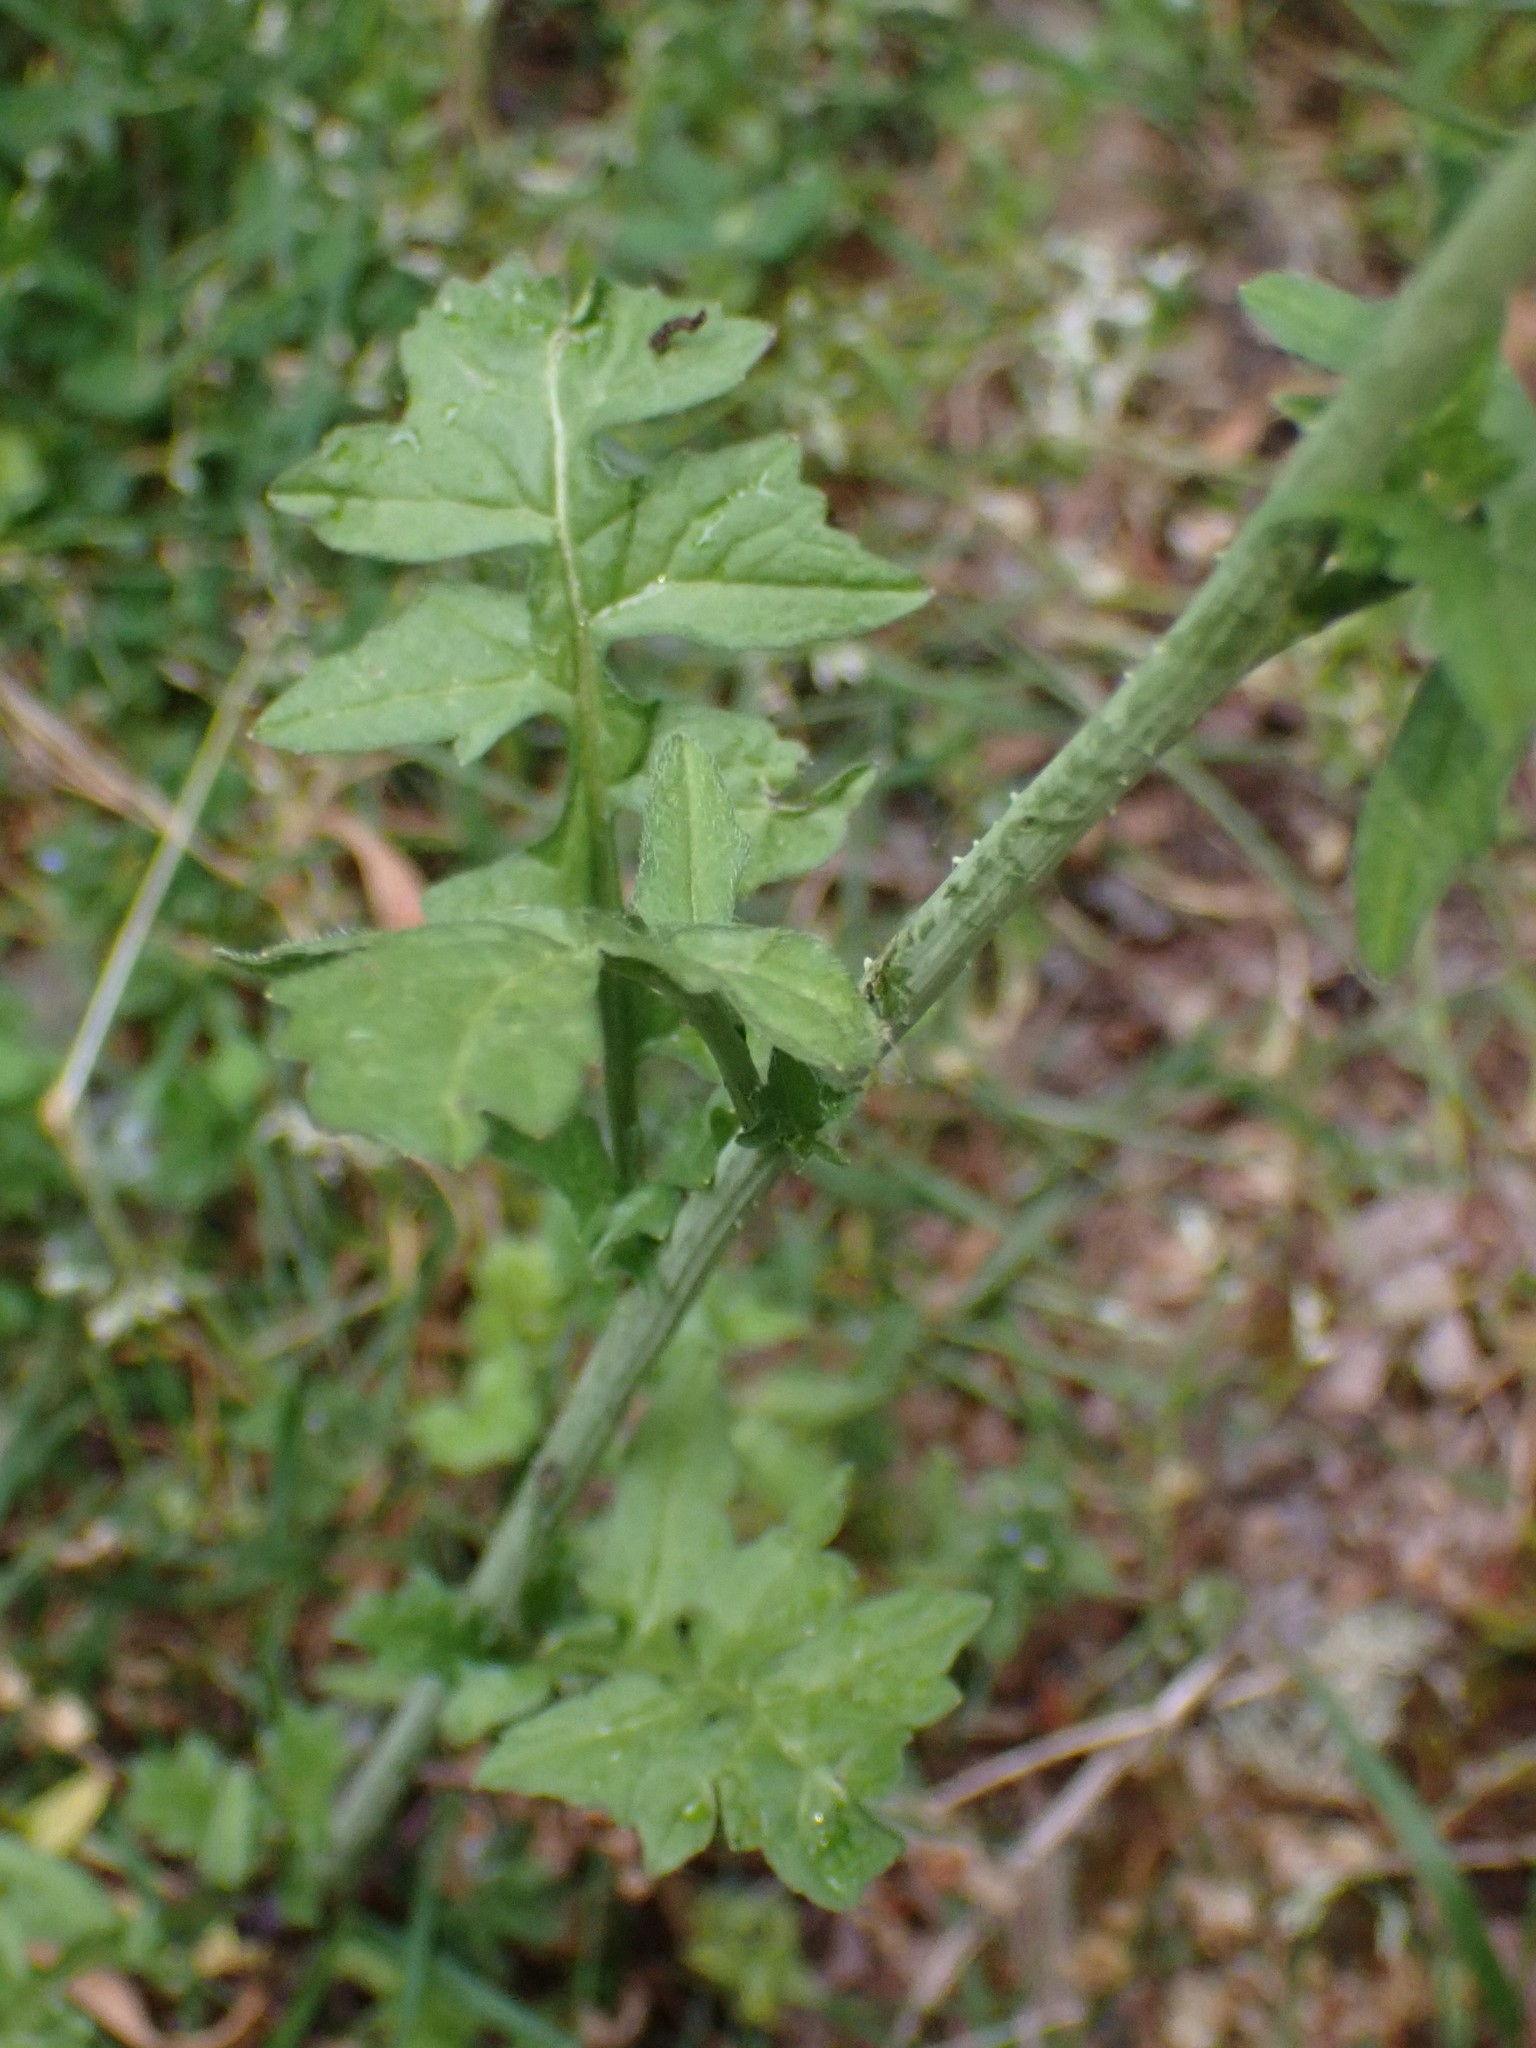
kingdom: Plantae
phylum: Tracheophyta
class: Magnoliopsida
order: Brassicales
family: Brassicaceae
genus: Sisymbrium
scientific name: Sisymbrium officinale
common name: Hedge mustard
